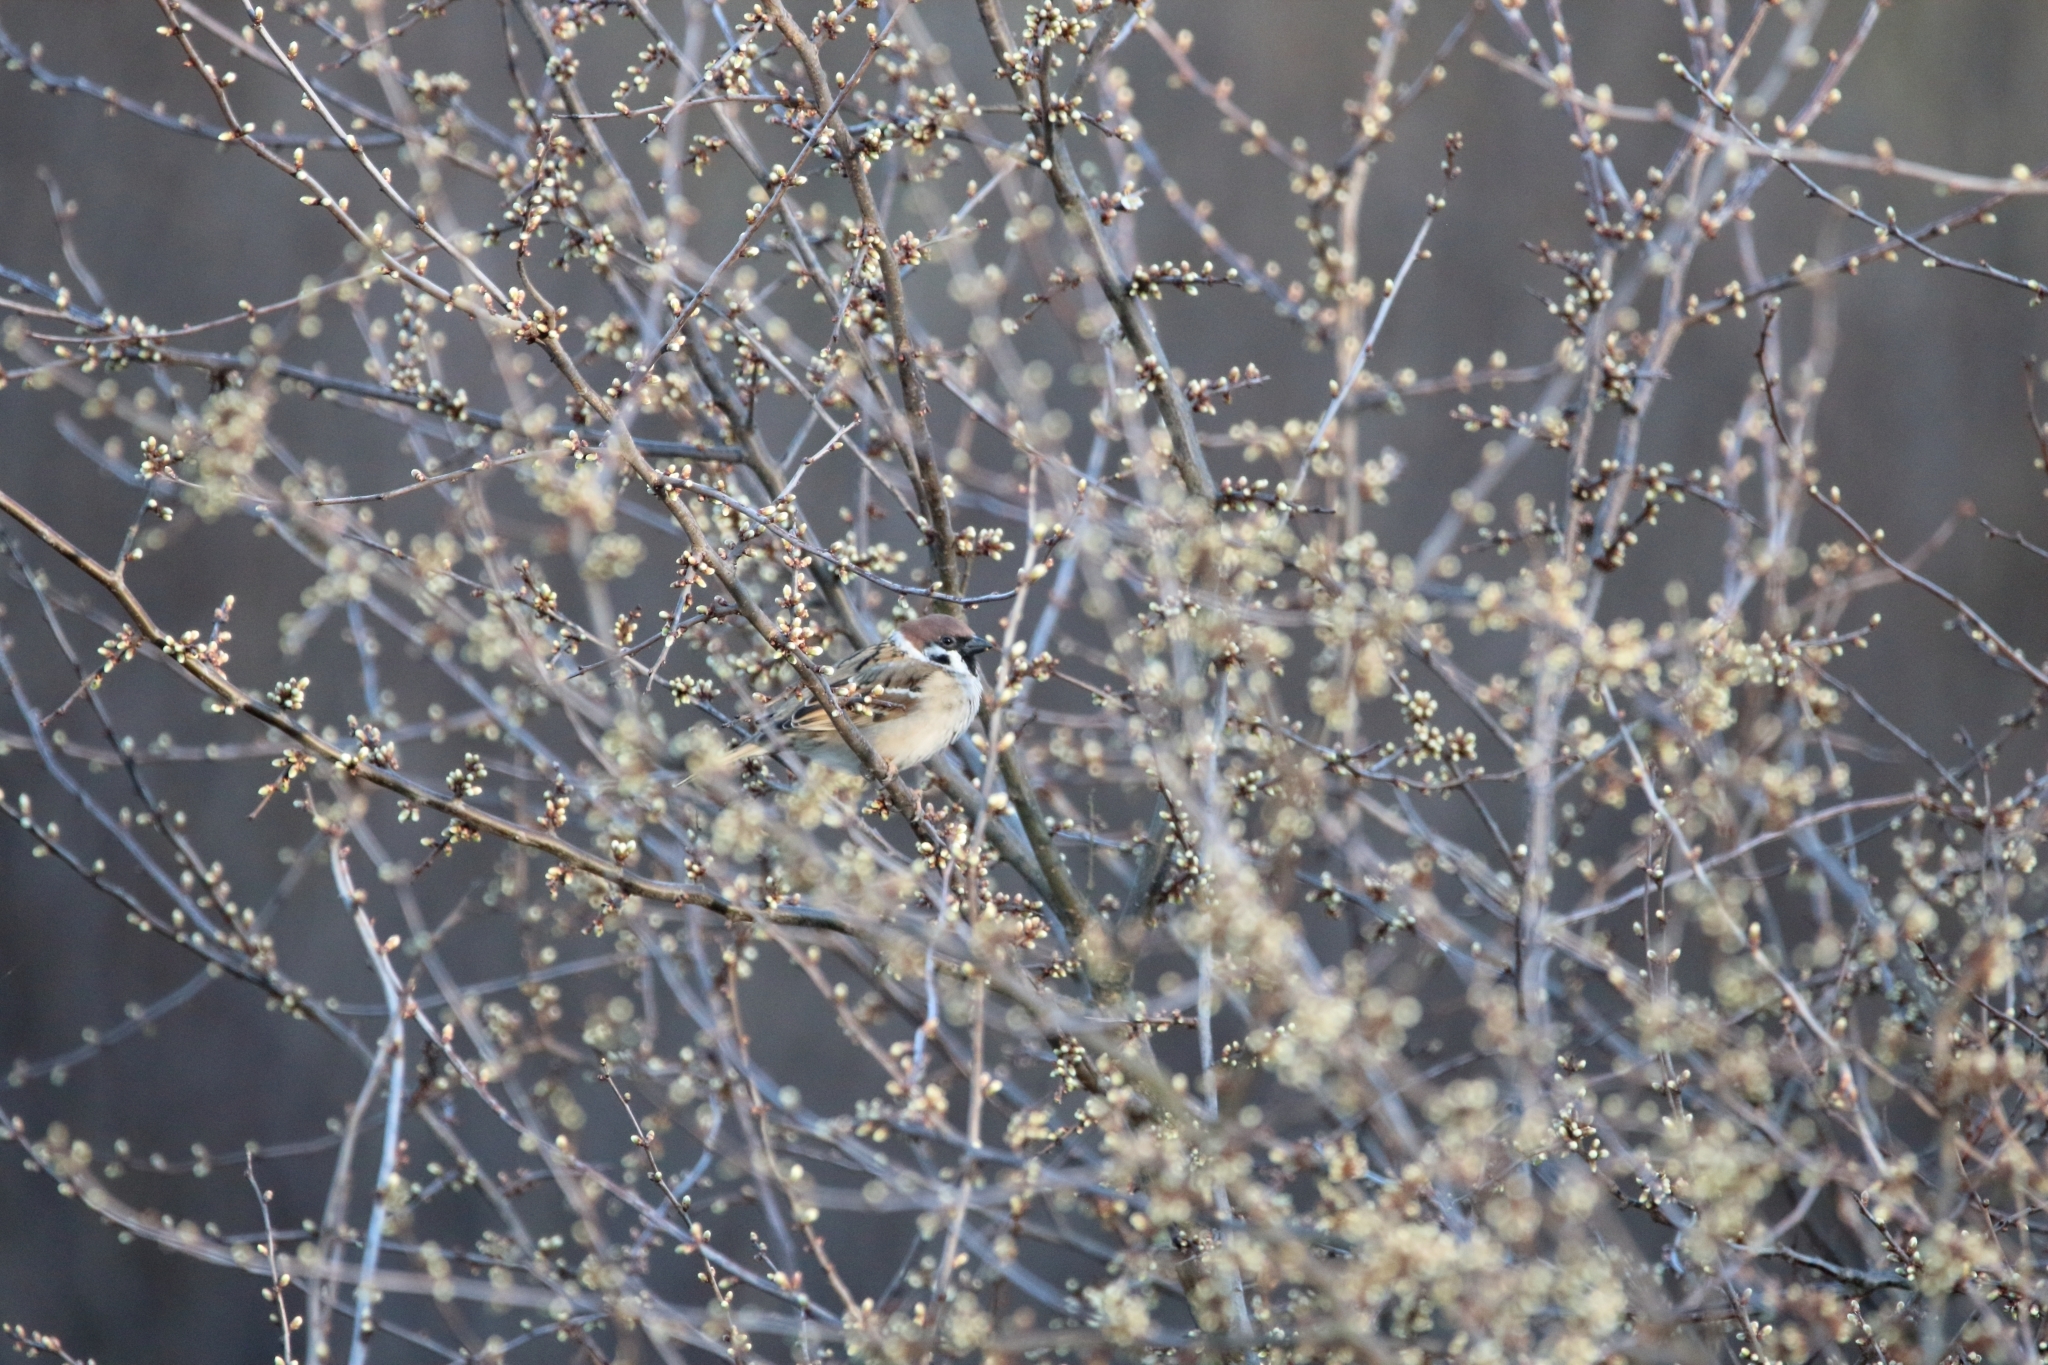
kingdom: Animalia
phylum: Chordata
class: Aves
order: Passeriformes
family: Passeridae
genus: Passer
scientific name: Passer montanus
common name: Eurasian tree sparrow
